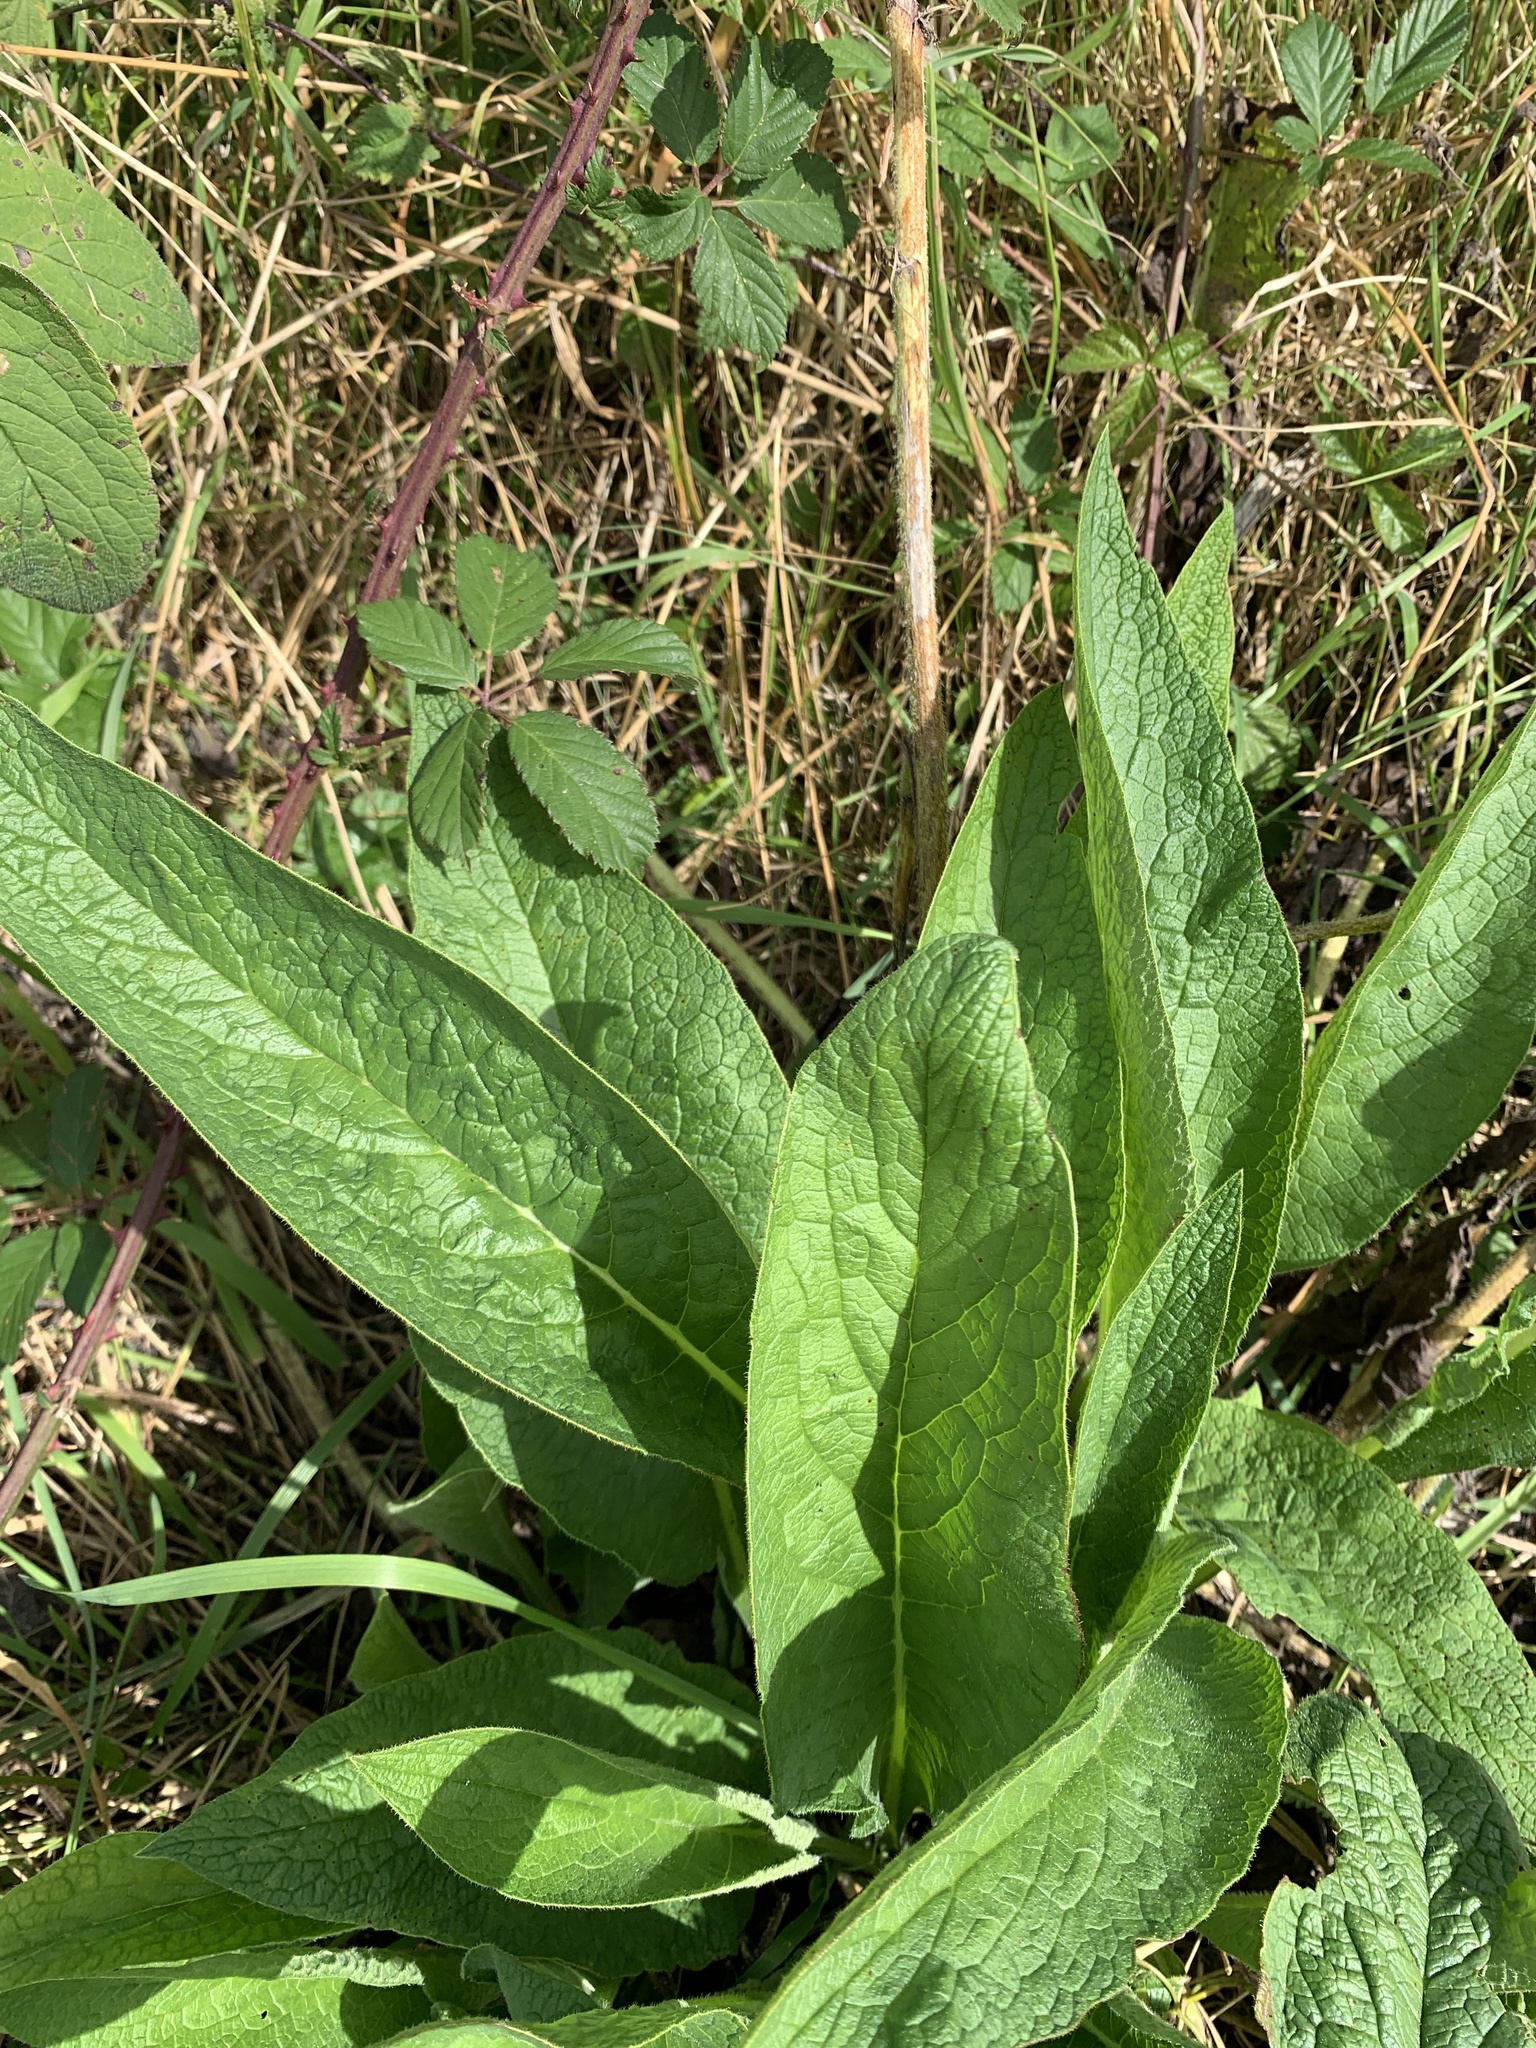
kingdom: Plantae
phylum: Tracheophyta
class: Magnoliopsida
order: Boraginales
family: Boraginaceae
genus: Symphytum
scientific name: Symphytum officinale
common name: Common comfrey
